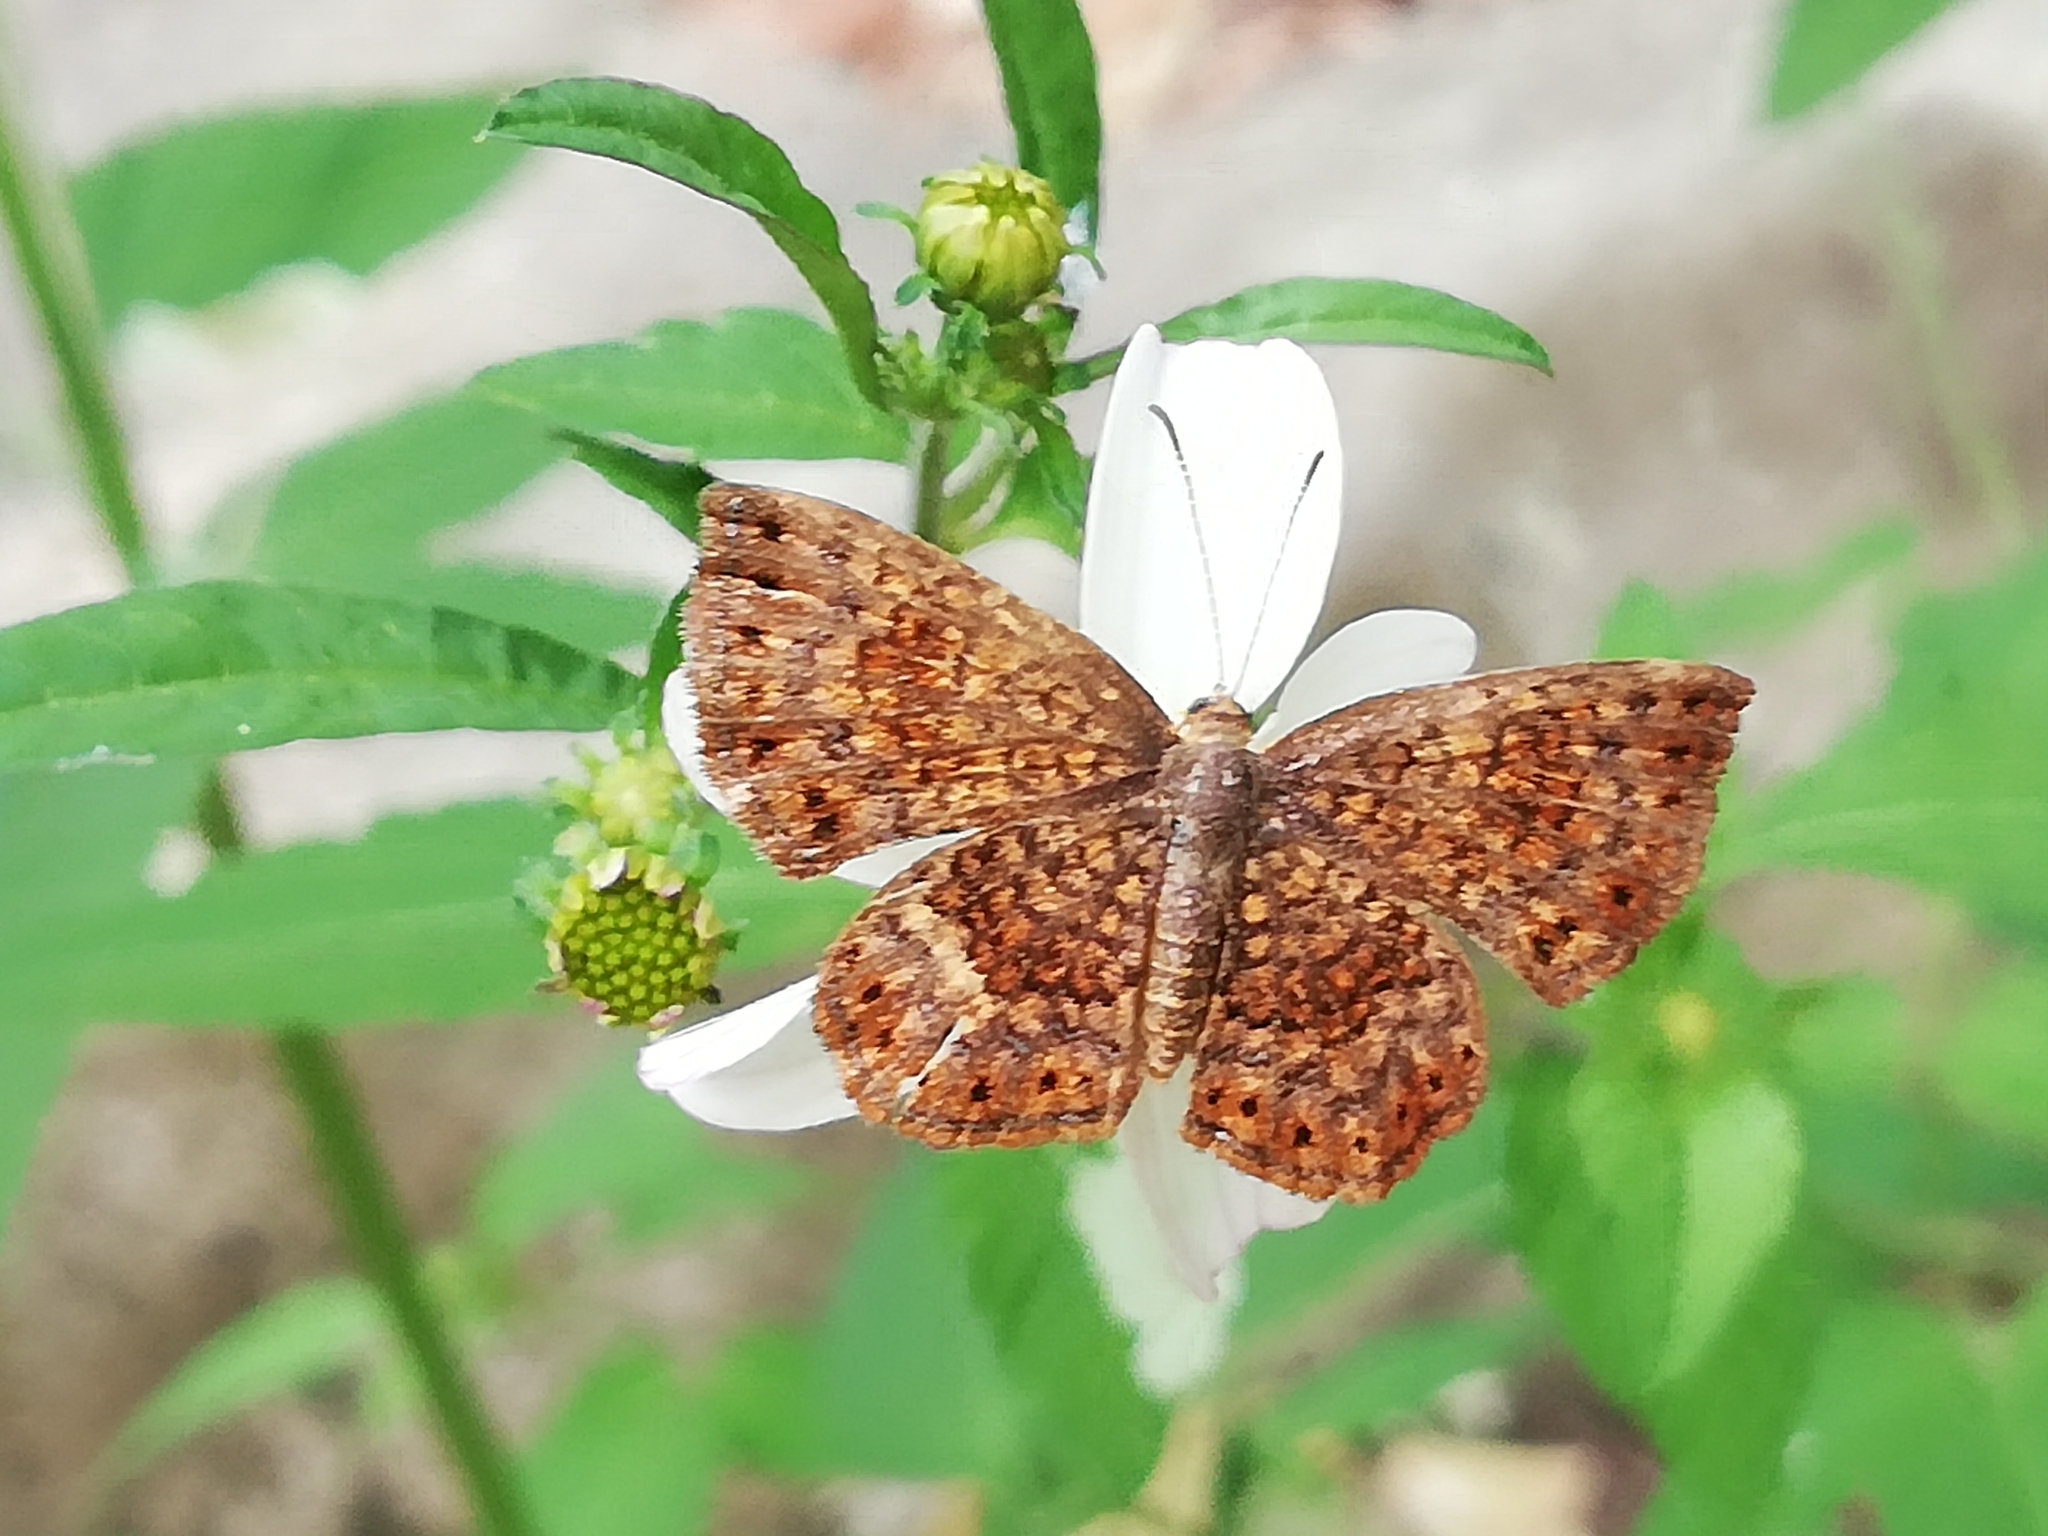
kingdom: Animalia
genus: Calephelis
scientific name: Calephelis nemesis
